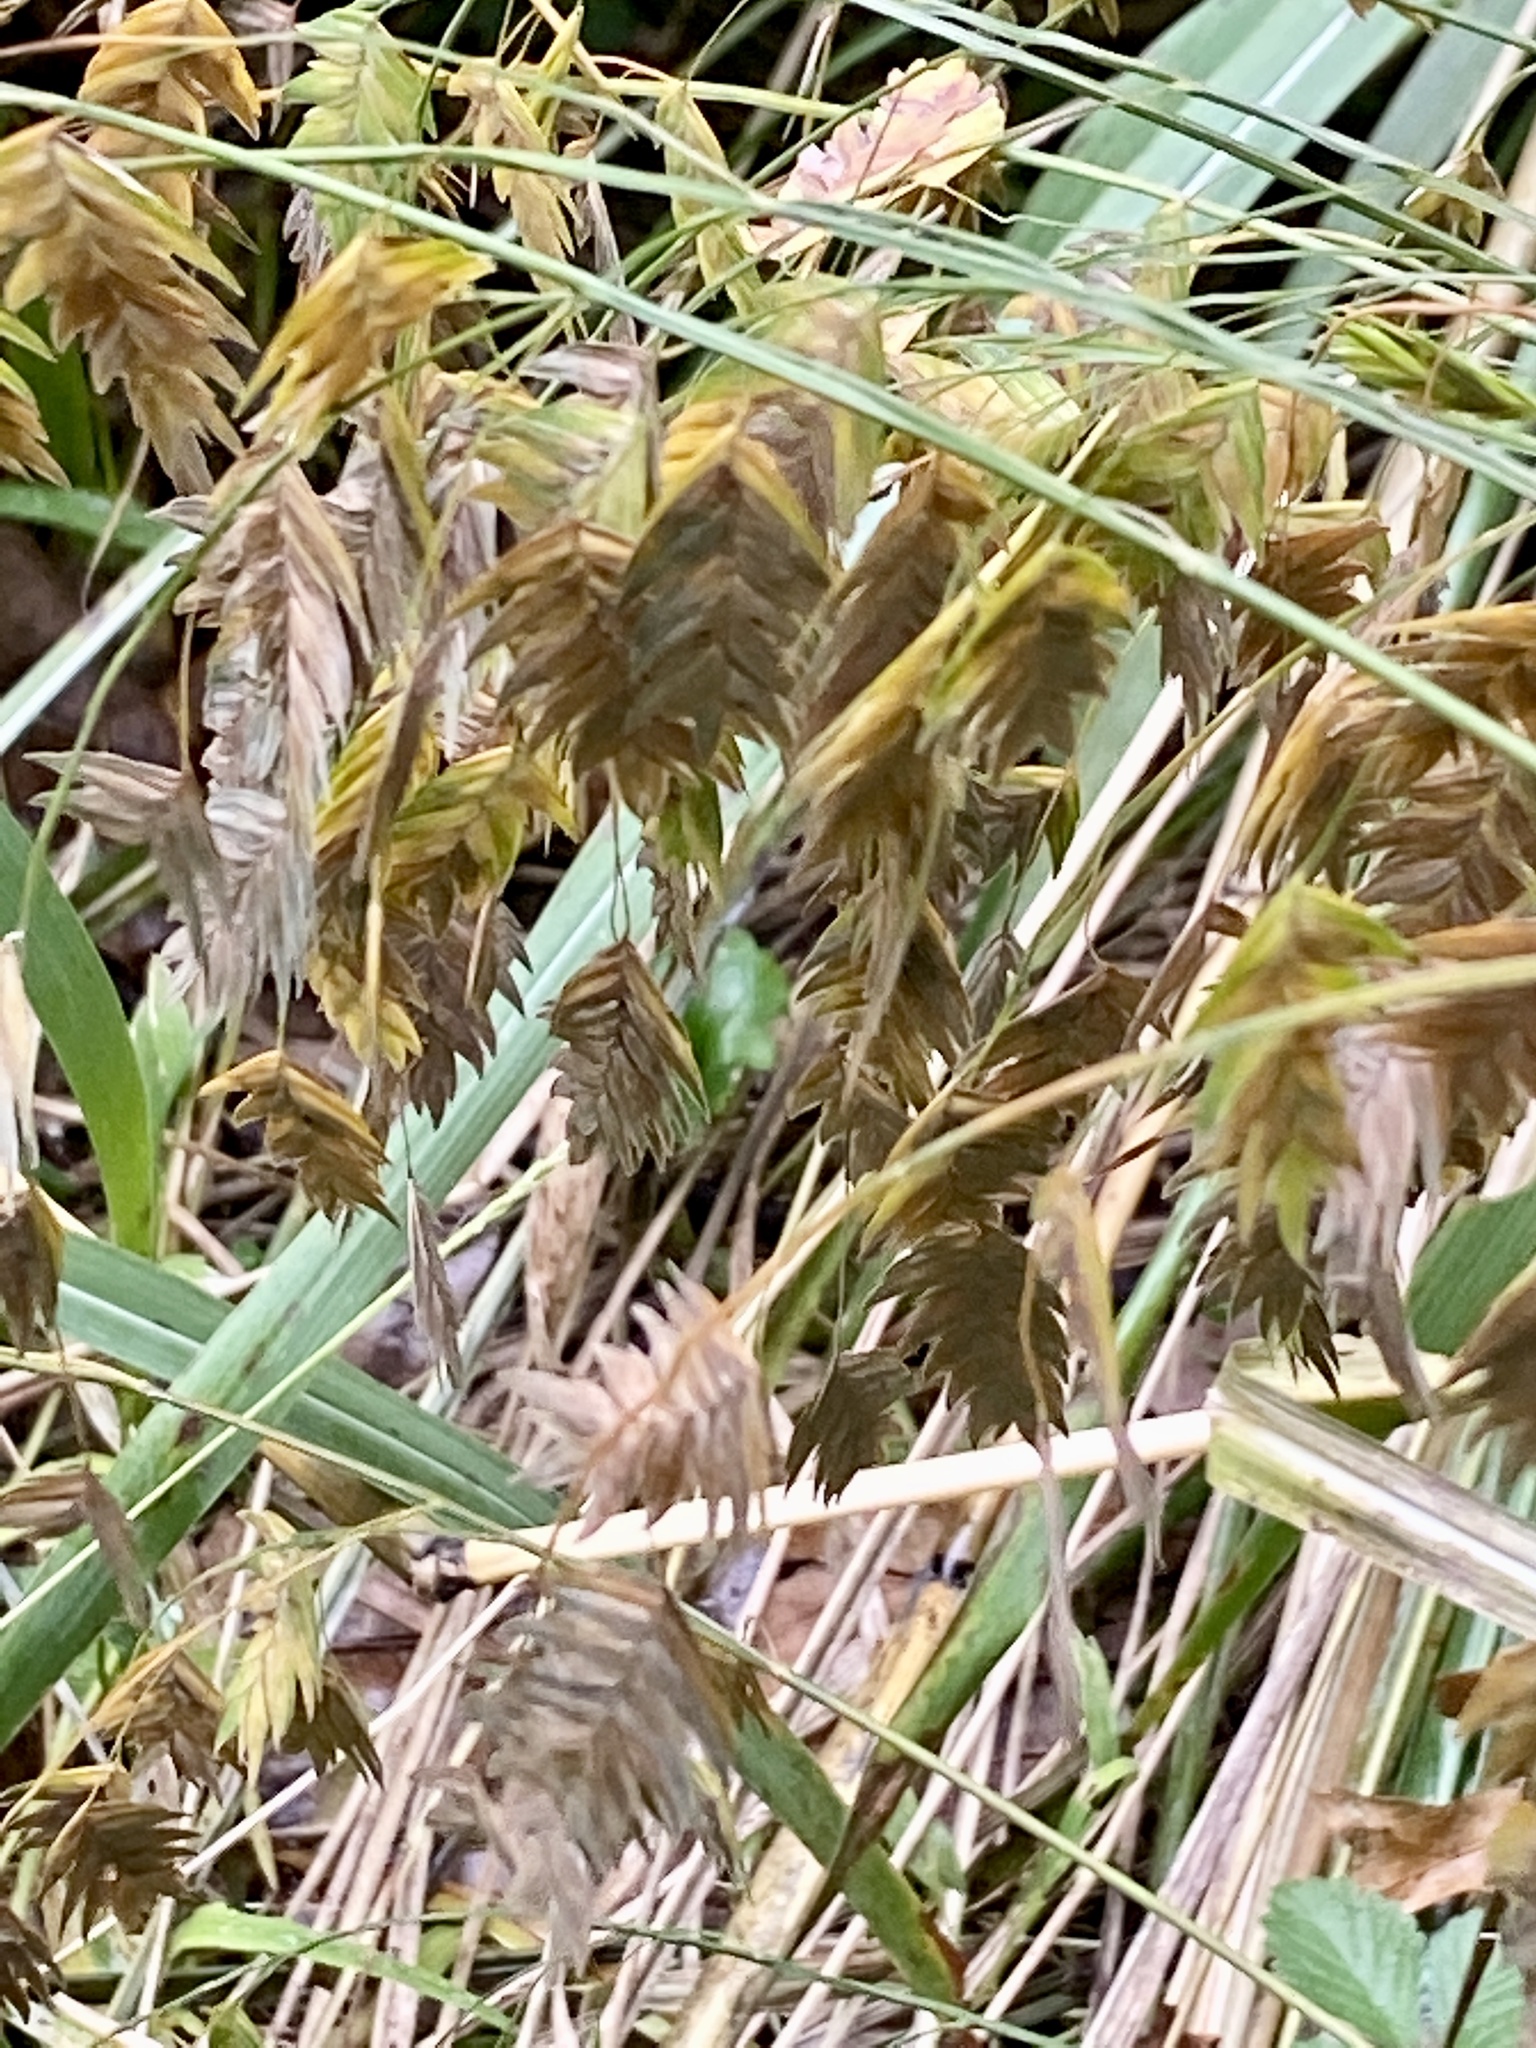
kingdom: Plantae
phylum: Tracheophyta
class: Liliopsida
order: Poales
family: Poaceae
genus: Chasmanthium
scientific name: Chasmanthium latifolium
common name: Broad-leaved chasmanthium
